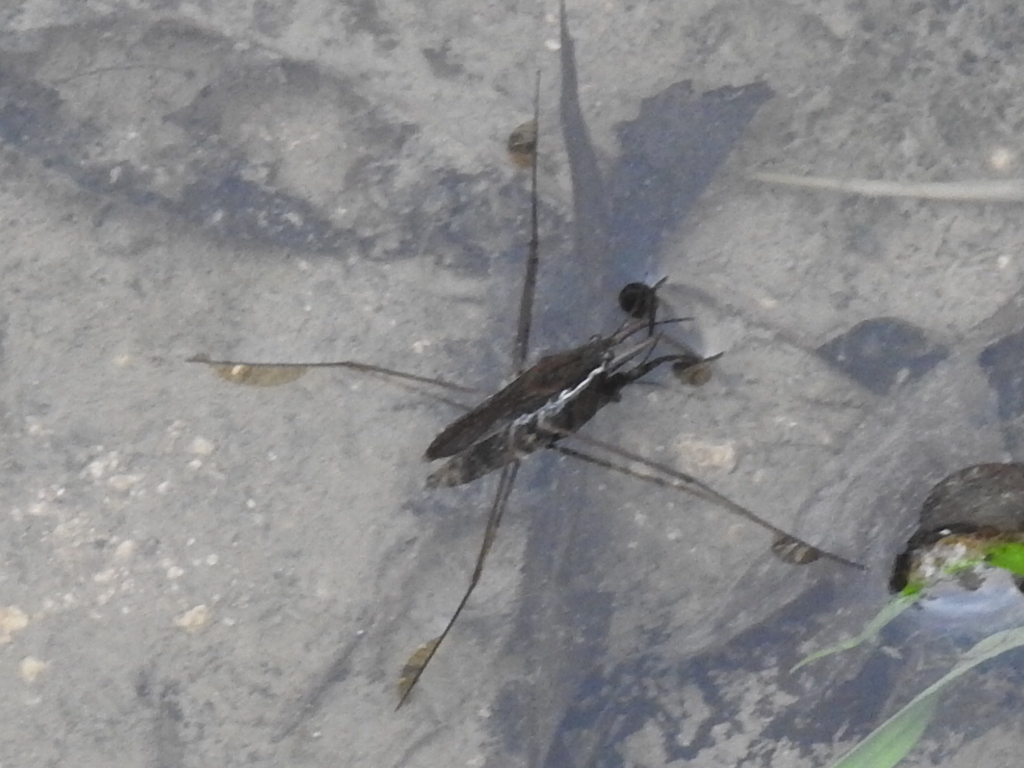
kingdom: Animalia
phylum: Arthropoda
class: Insecta
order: Hemiptera
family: Gerridae
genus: Aquarius
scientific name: Aquarius remigis
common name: Common water strider
